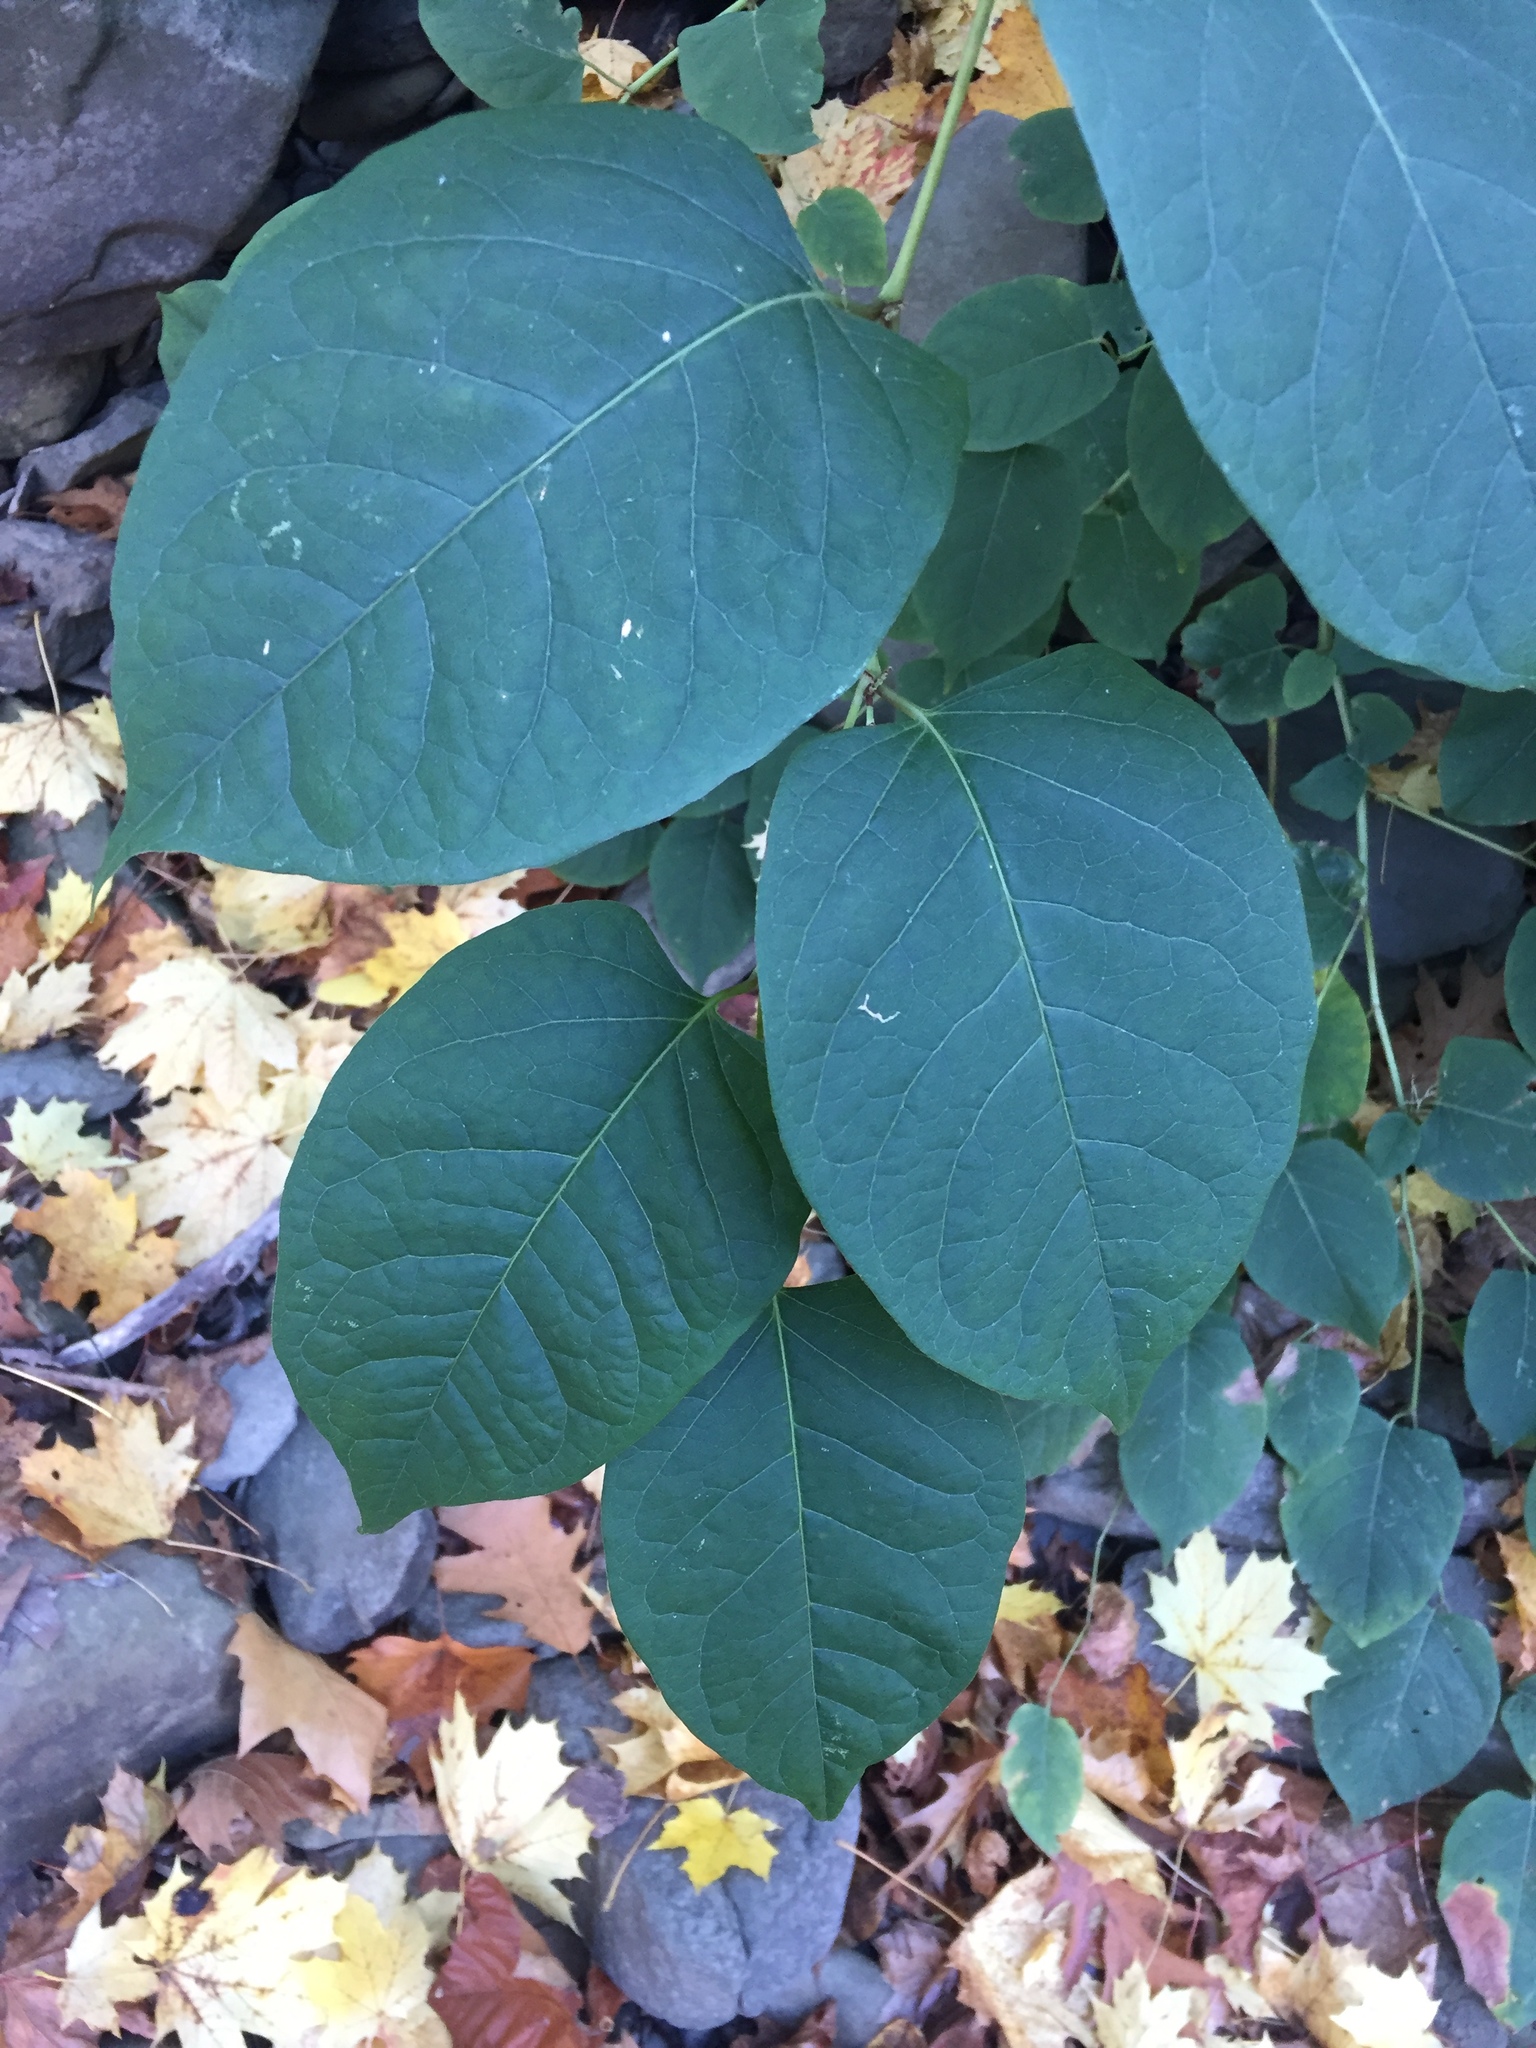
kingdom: Plantae
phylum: Tracheophyta
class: Magnoliopsida
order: Caryophyllales
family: Polygonaceae
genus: Reynoutria
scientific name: Reynoutria japonica
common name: Japanese knotweed
